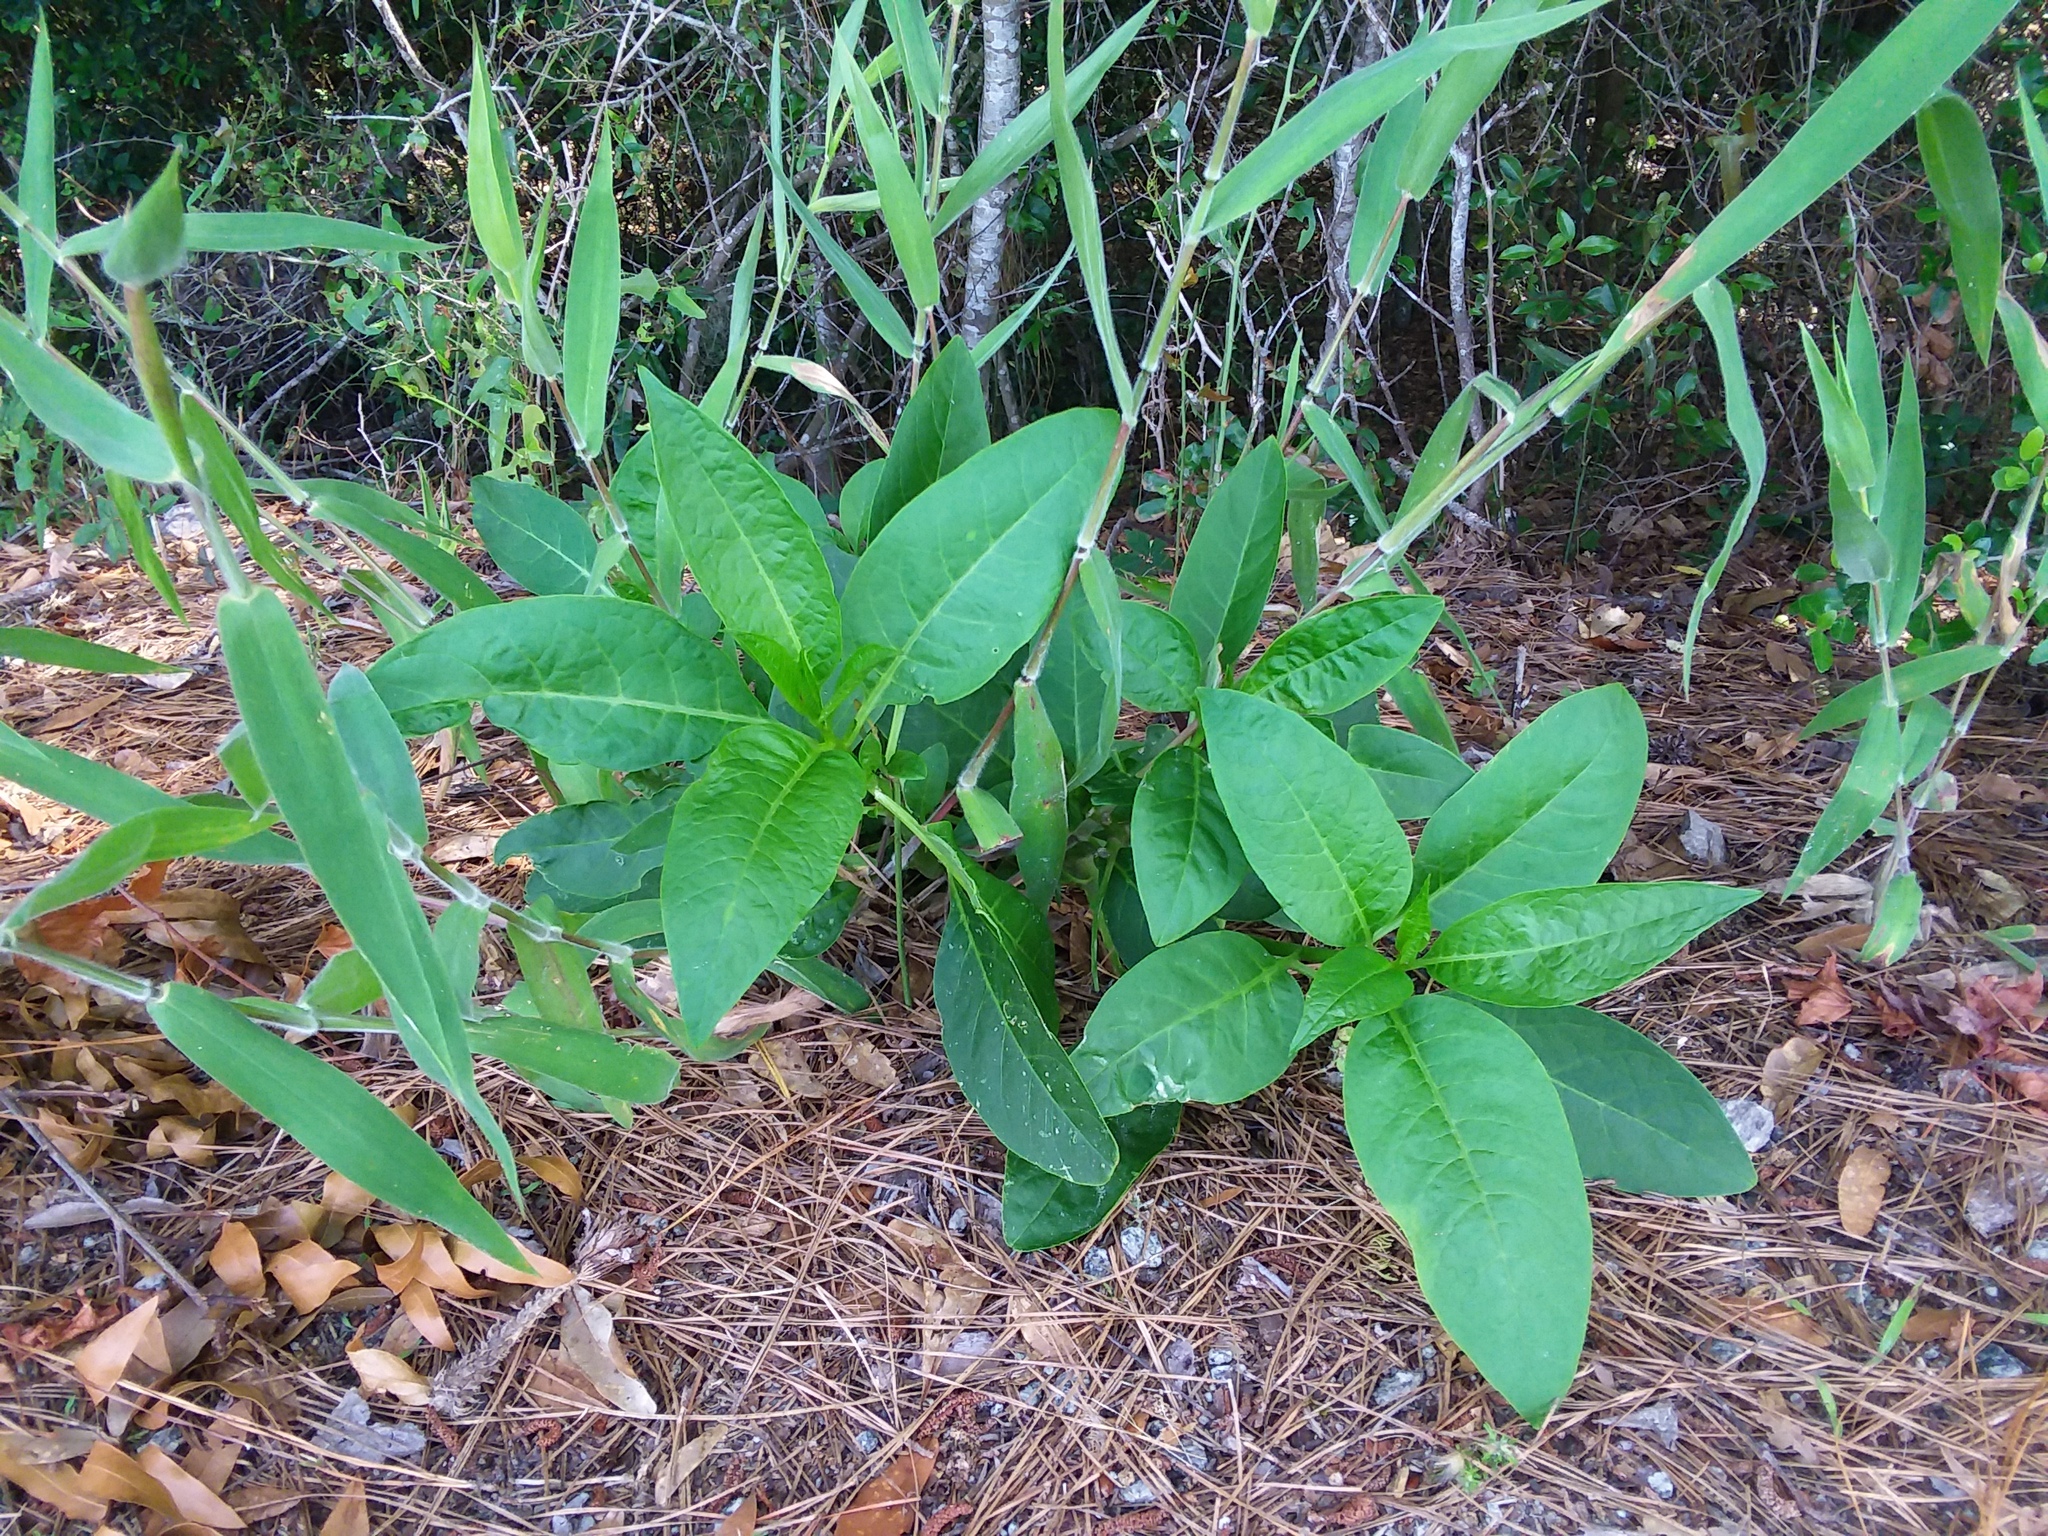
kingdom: Plantae
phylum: Tracheophyta
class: Magnoliopsida
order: Caryophyllales
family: Phytolaccaceae
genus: Phytolacca
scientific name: Phytolacca americana
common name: American pokeweed
